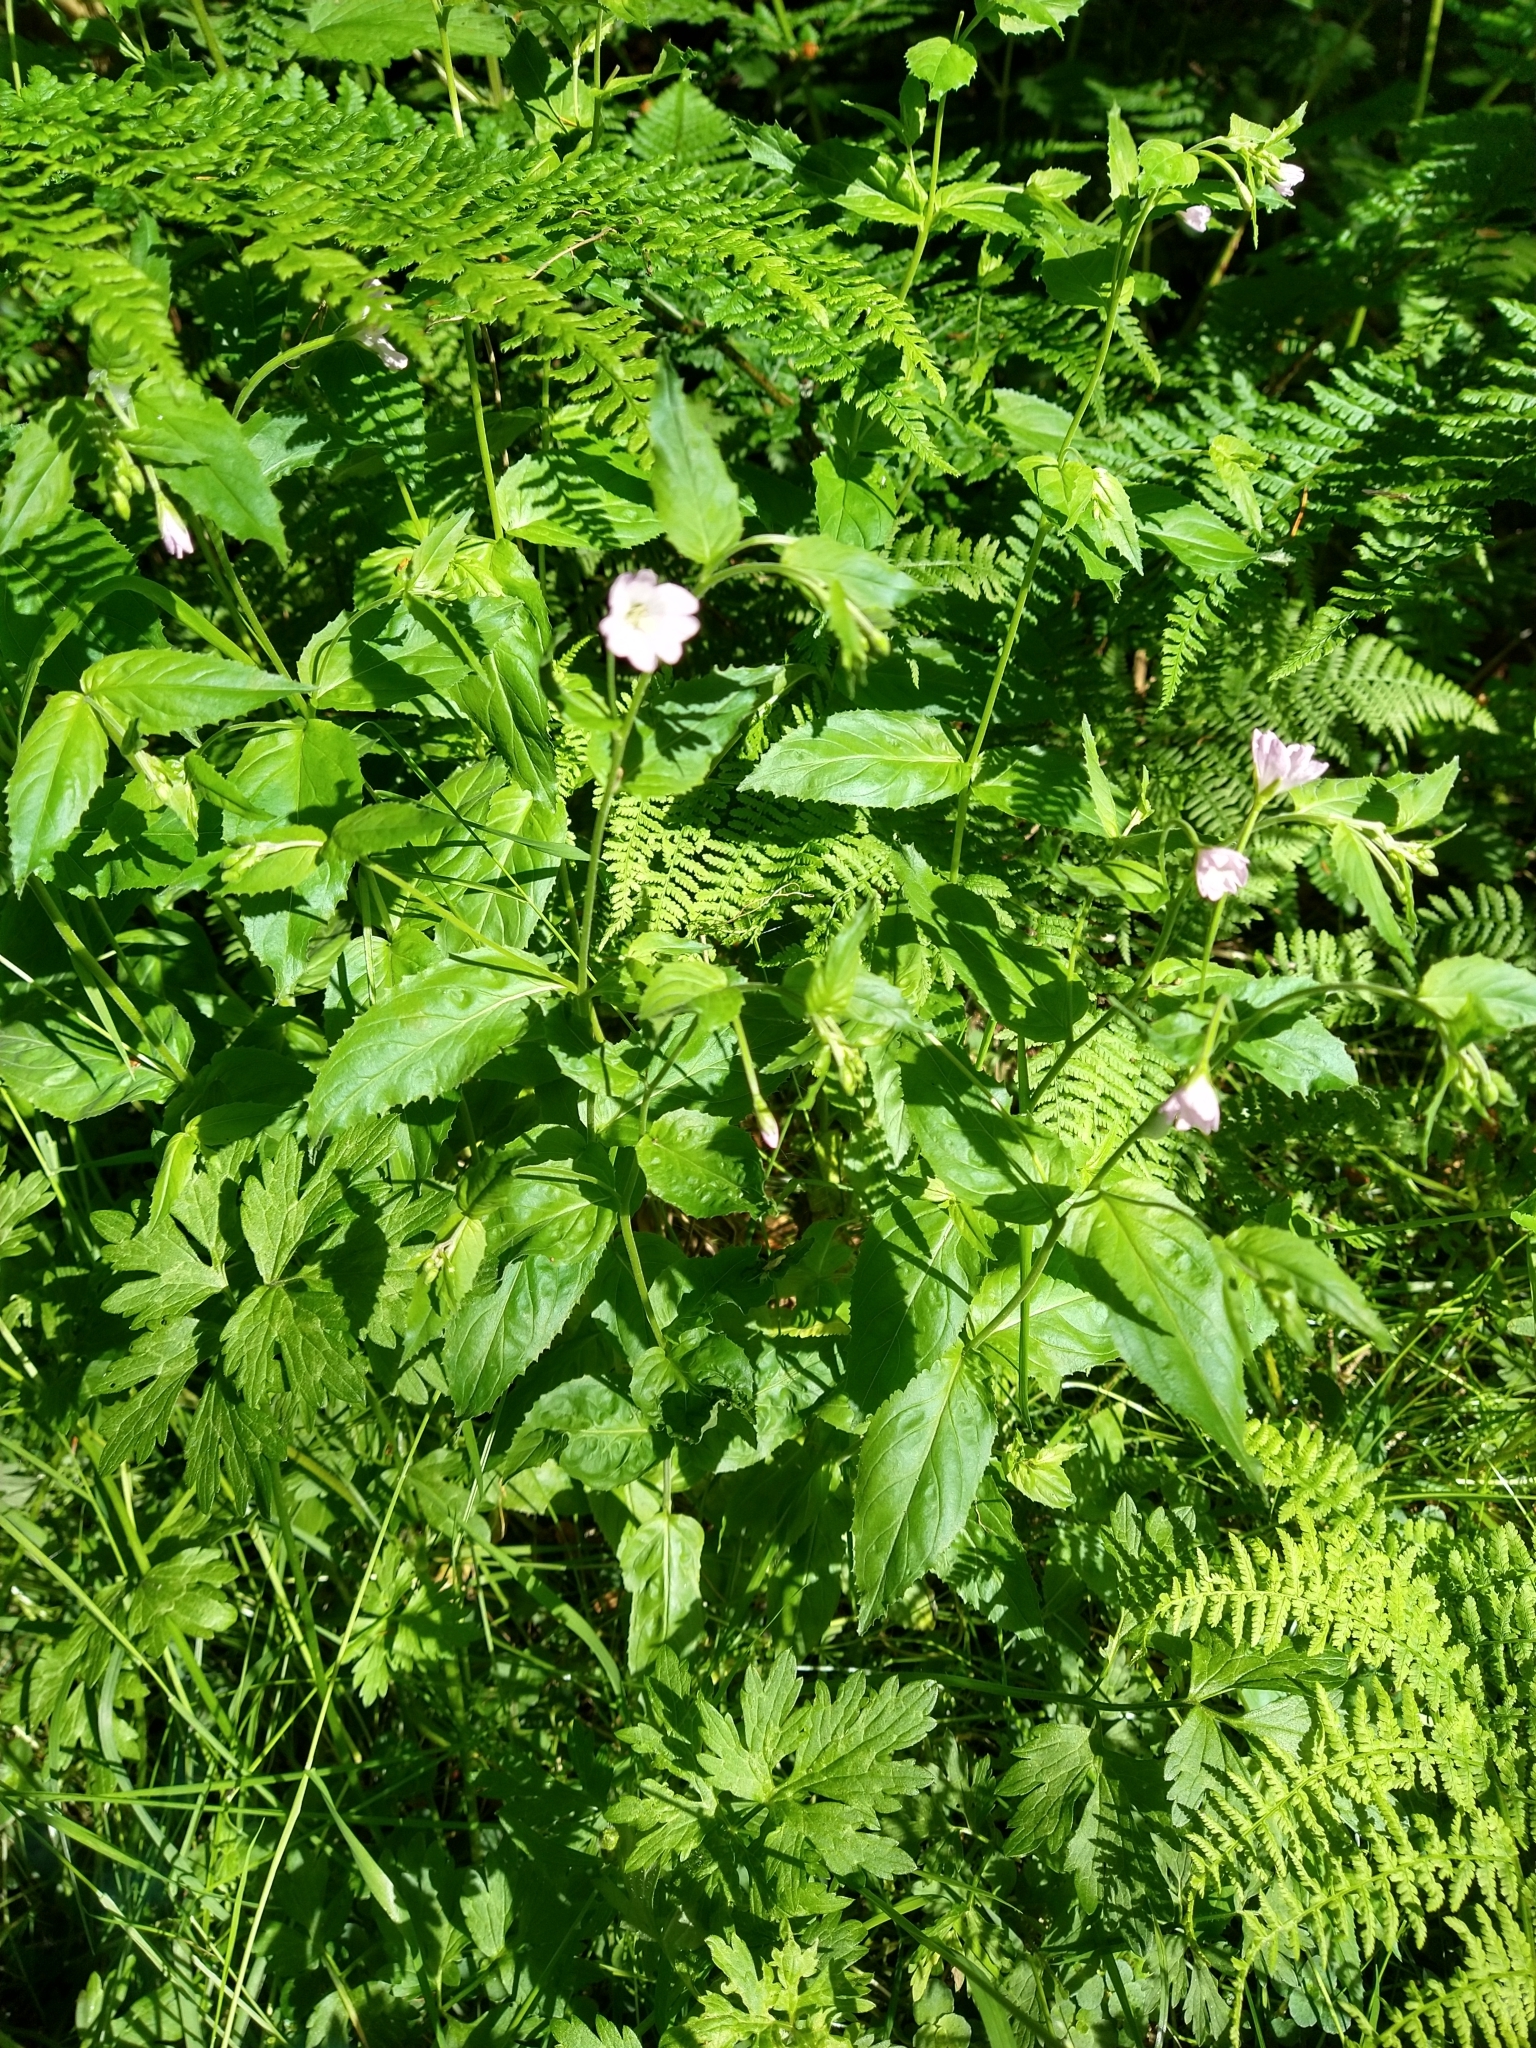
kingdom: Plantae
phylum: Tracheophyta
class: Magnoliopsida
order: Myrtales
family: Onagraceae
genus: Epilobium
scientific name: Epilobium montanum
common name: Broad-leaved willowherb
